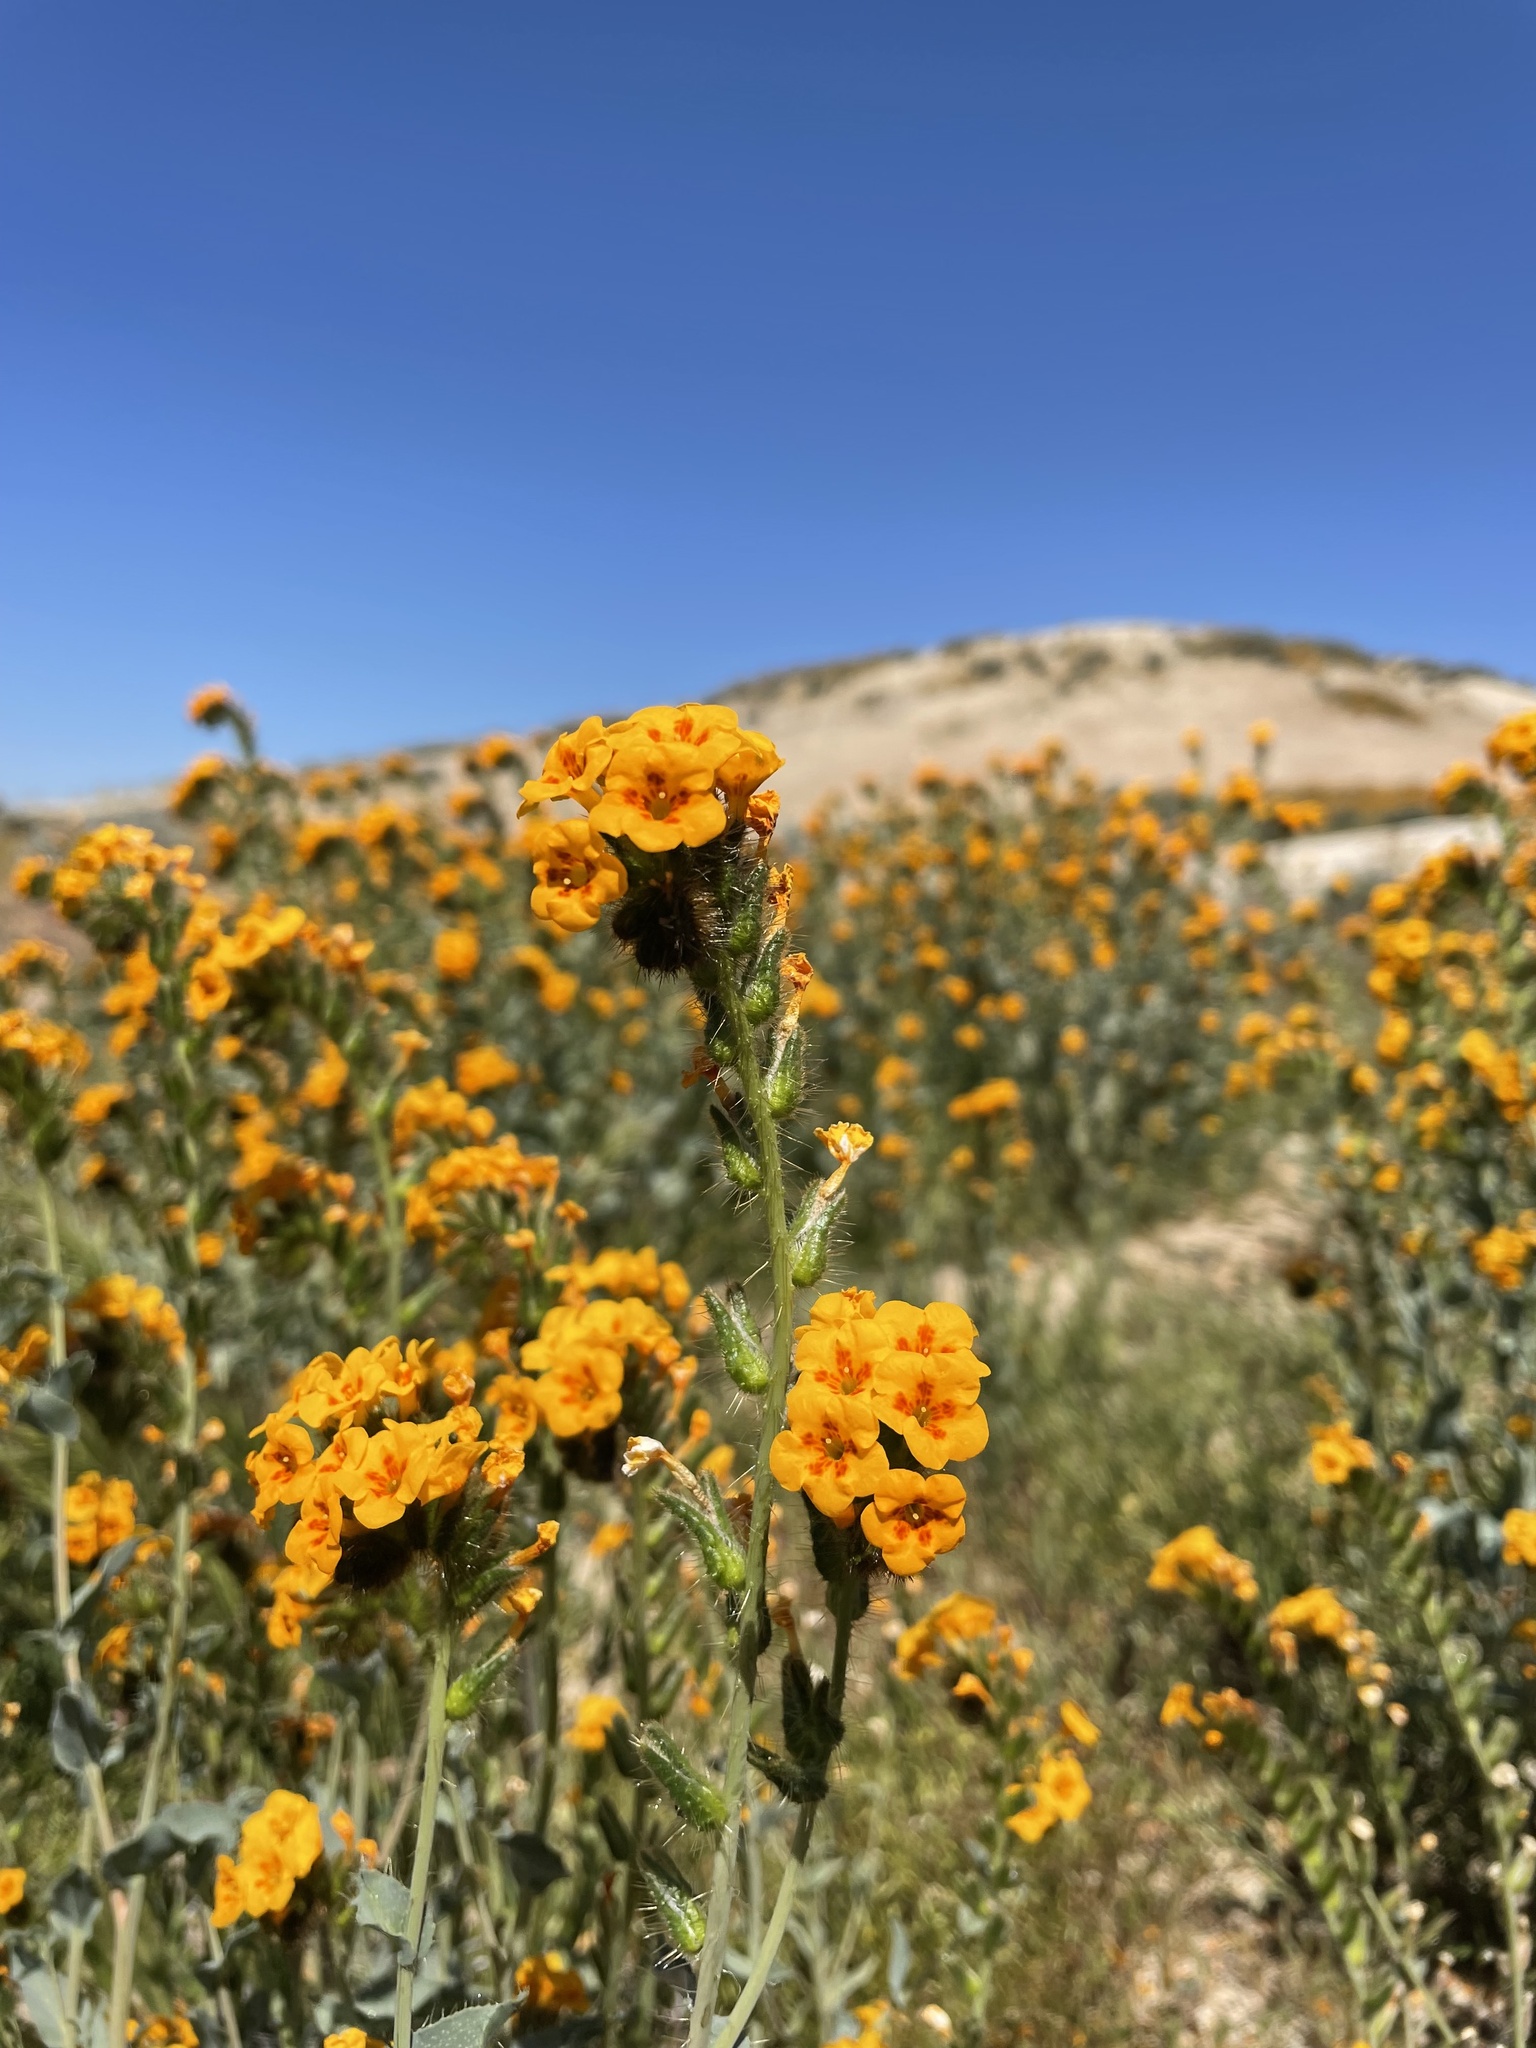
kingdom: Plantae
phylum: Tracheophyta
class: Magnoliopsida
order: Boraginales
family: Boraginaceae
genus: Amsinckia
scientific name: Amsinckia vernicosa
